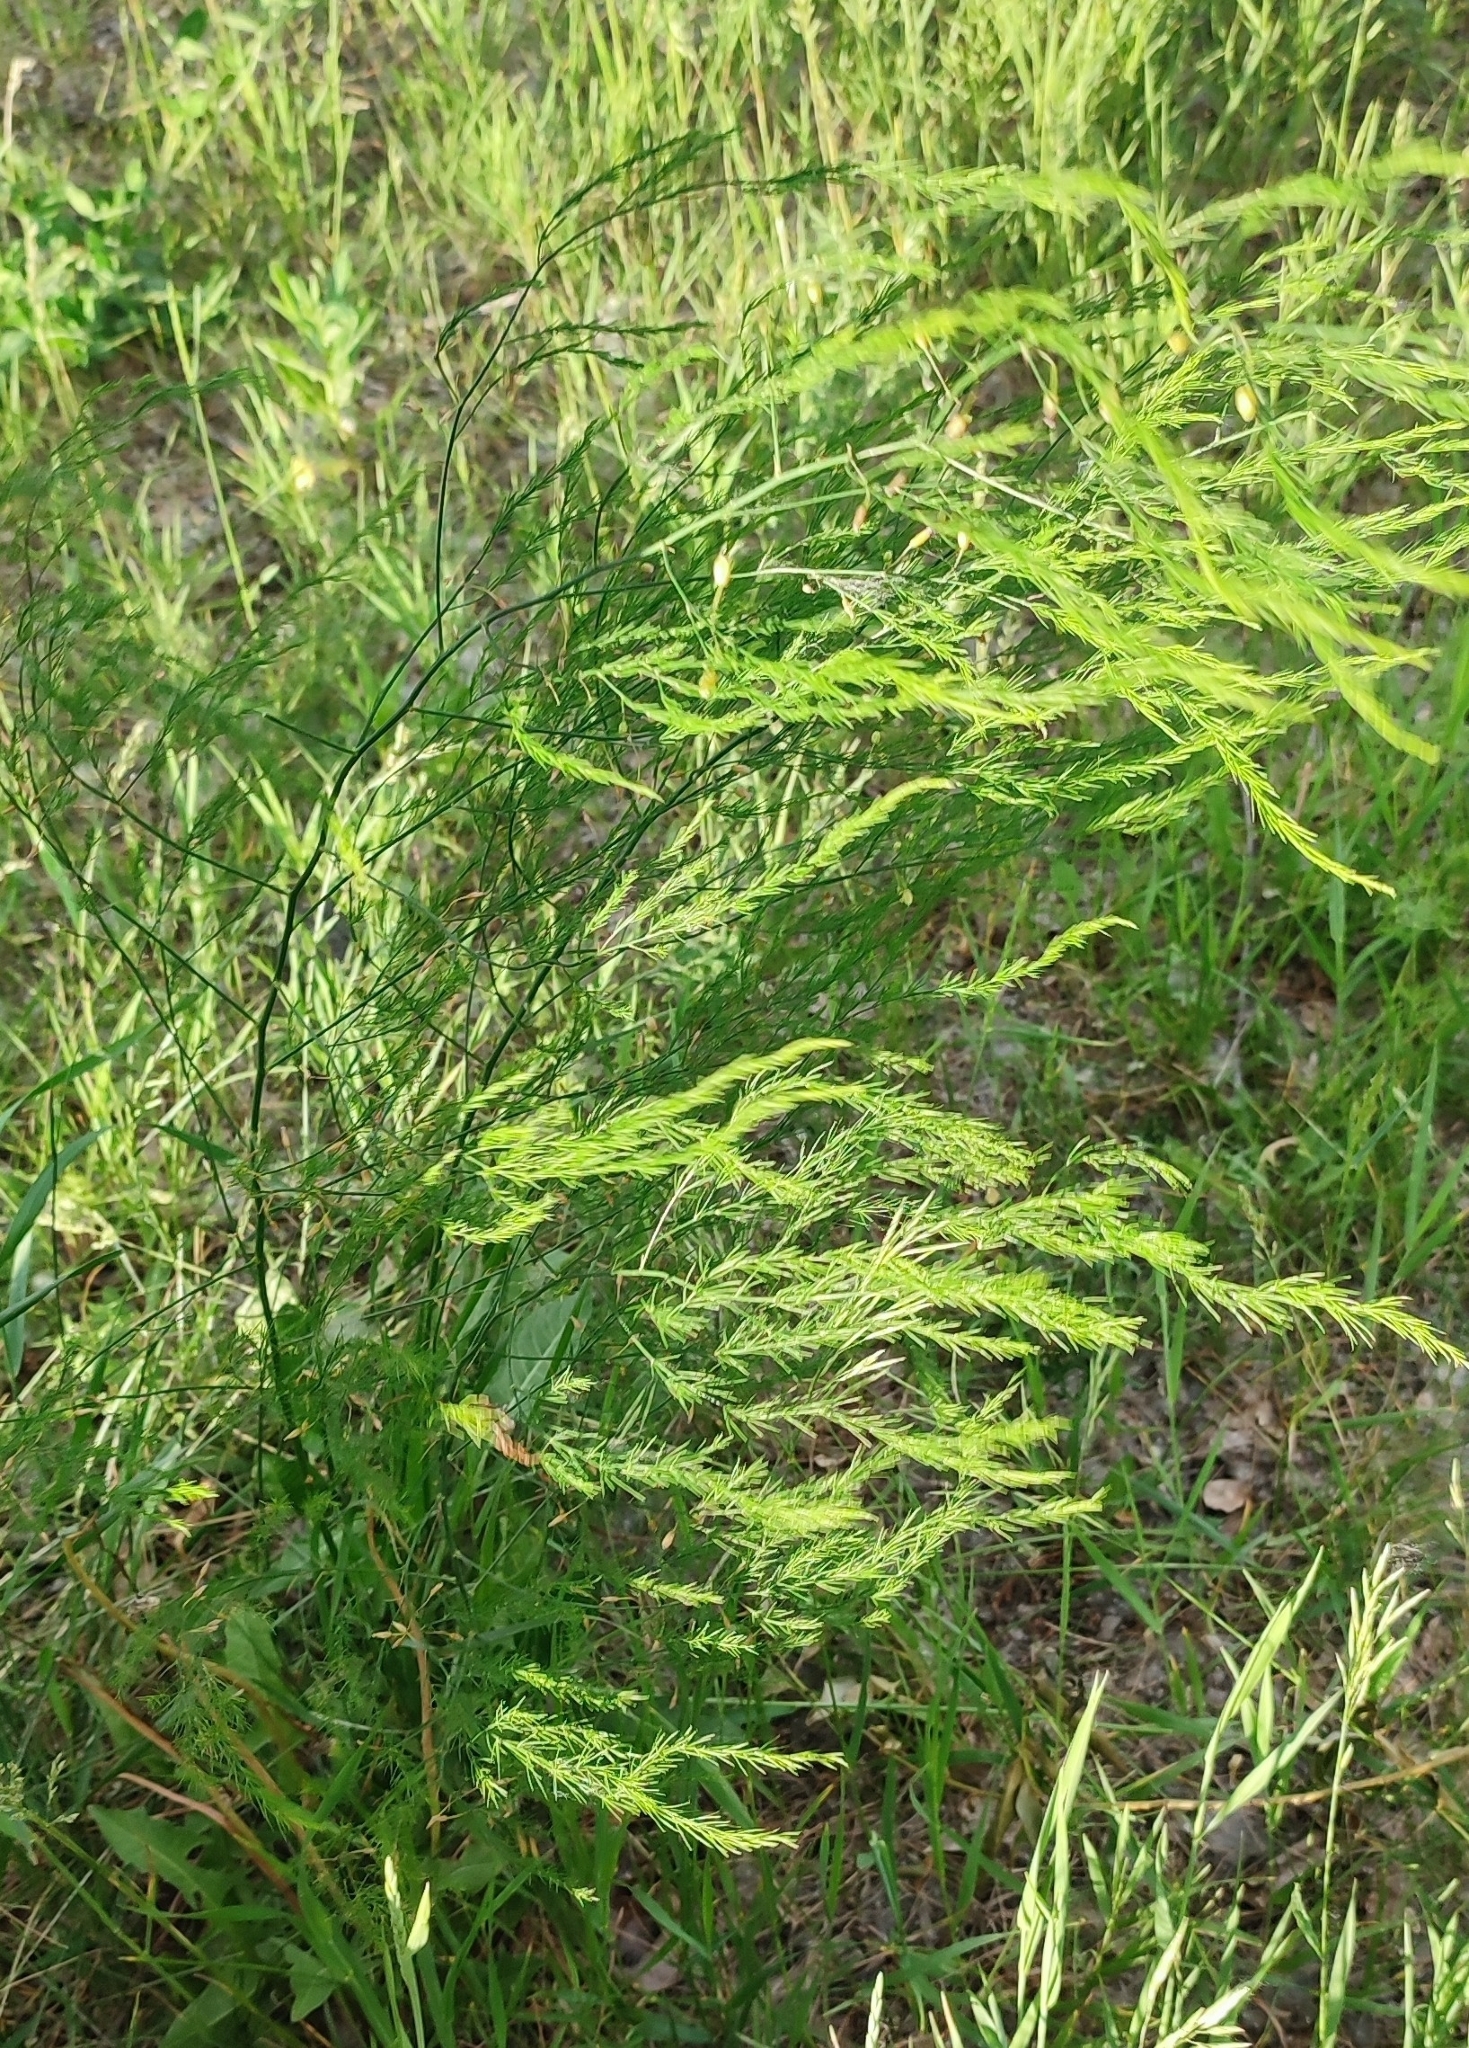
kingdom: Plantae
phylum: Tracheophyta
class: Liliopsida
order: Asparagales
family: Asparagaceae
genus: Asparagus
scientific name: Asparagus officinalis
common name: Garden asparagus
